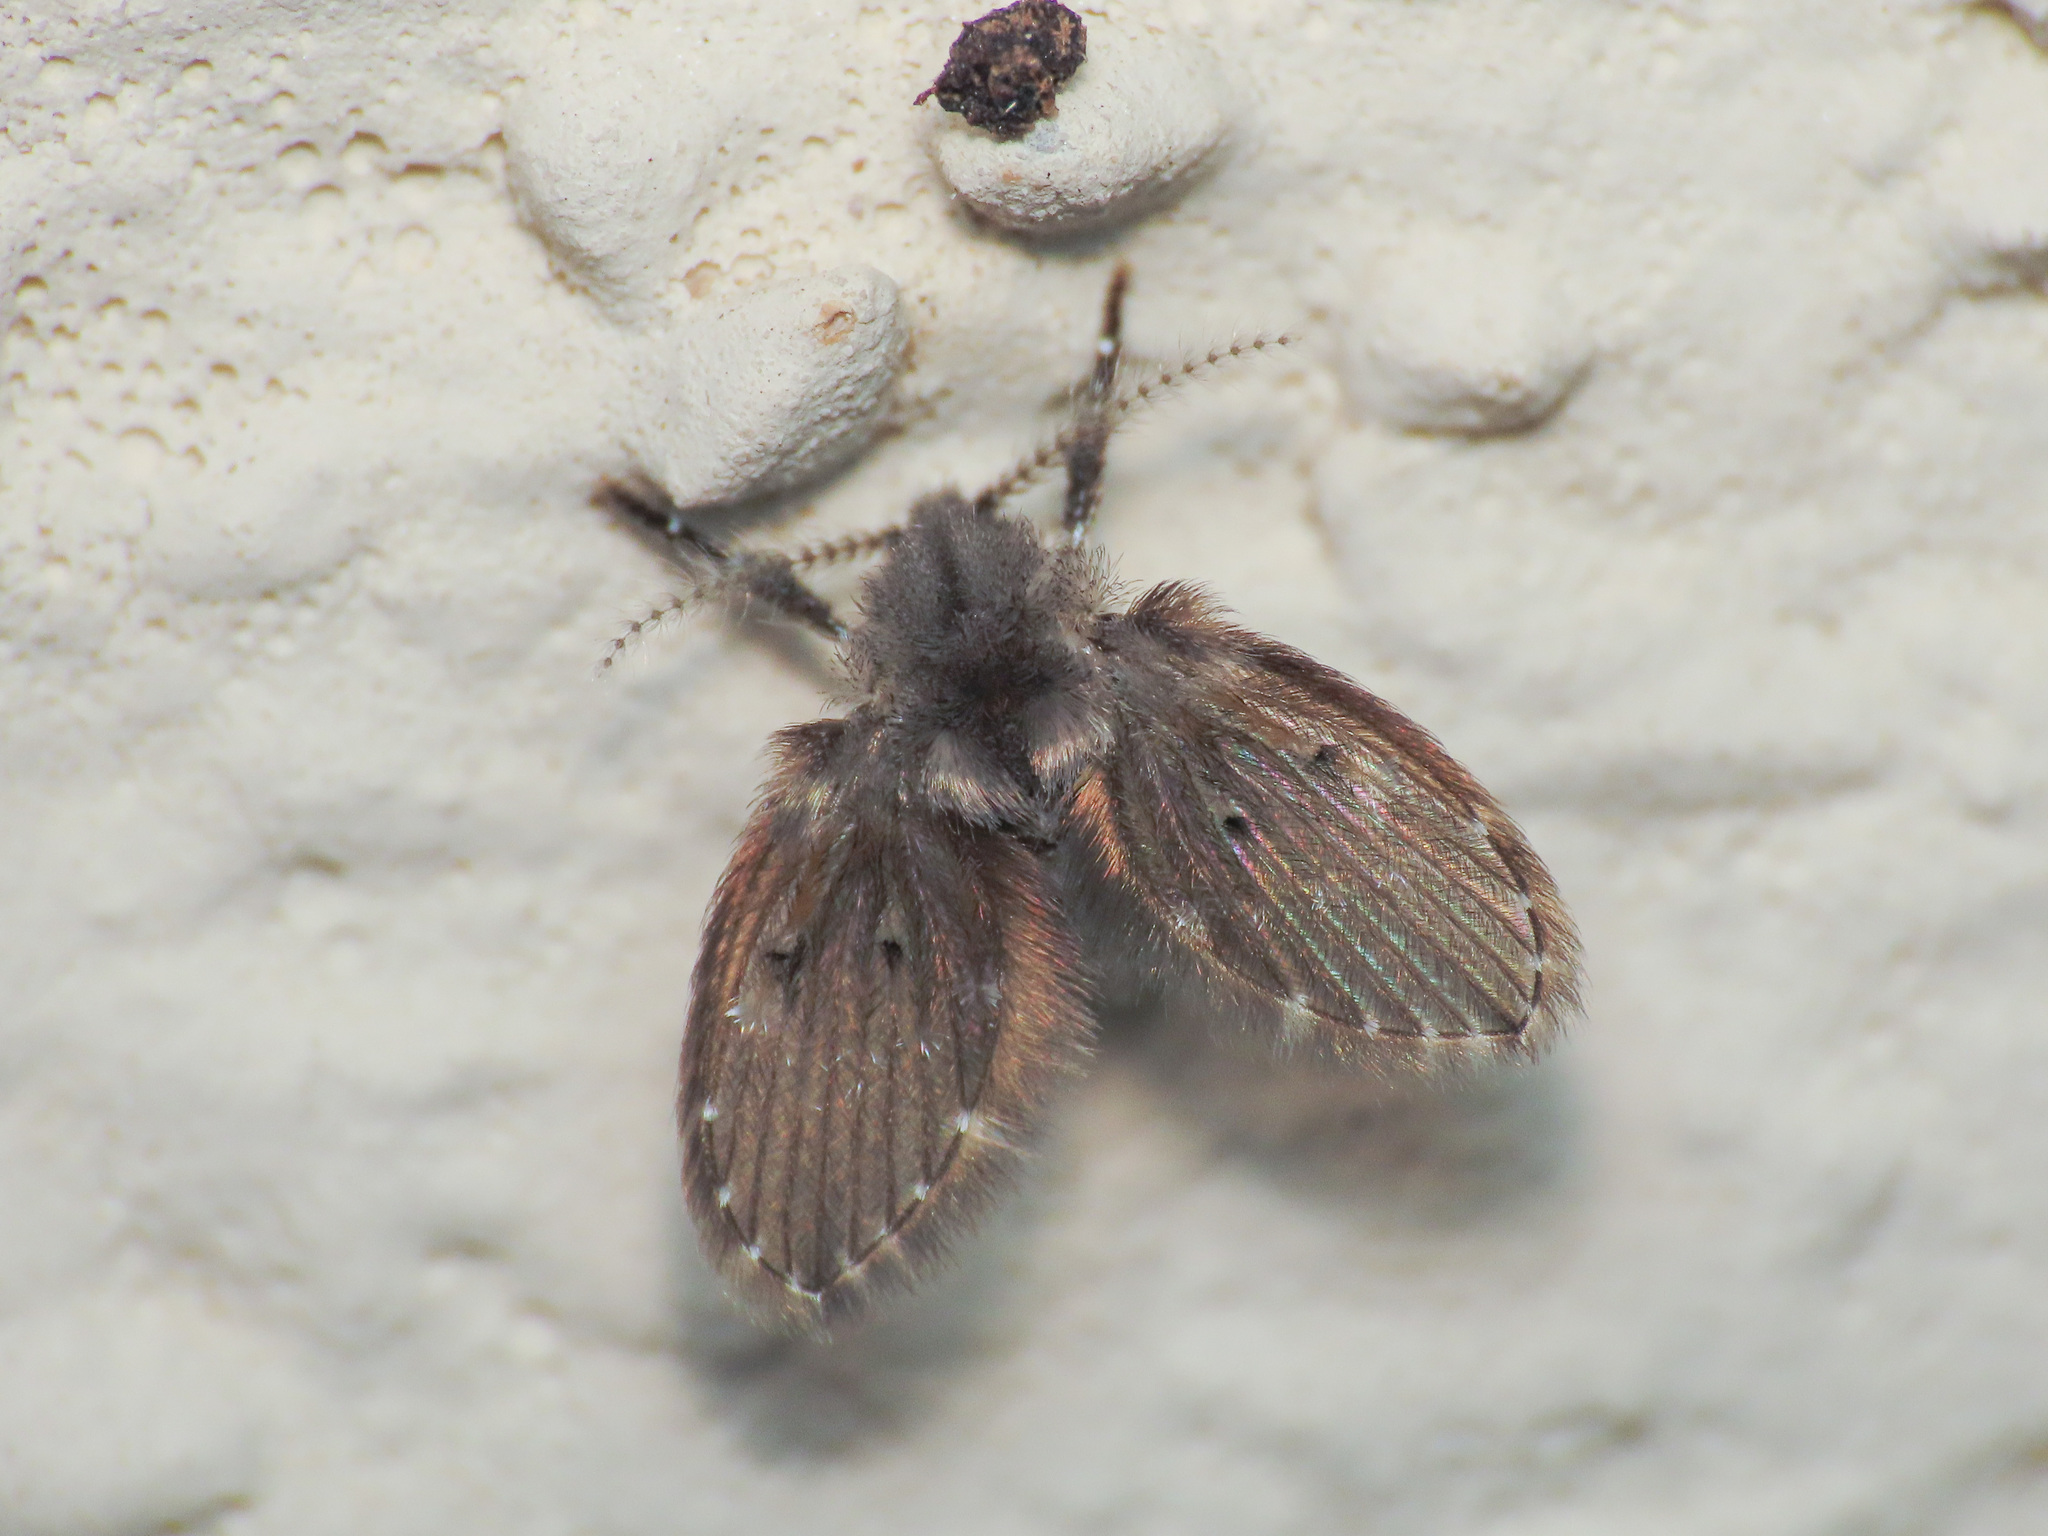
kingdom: Animalia
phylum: Arthropoda
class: Insecta
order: Diptera
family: Psychodidae
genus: Clogmia
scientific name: Clogmia albipunctatus
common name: White-spotted moth fly
